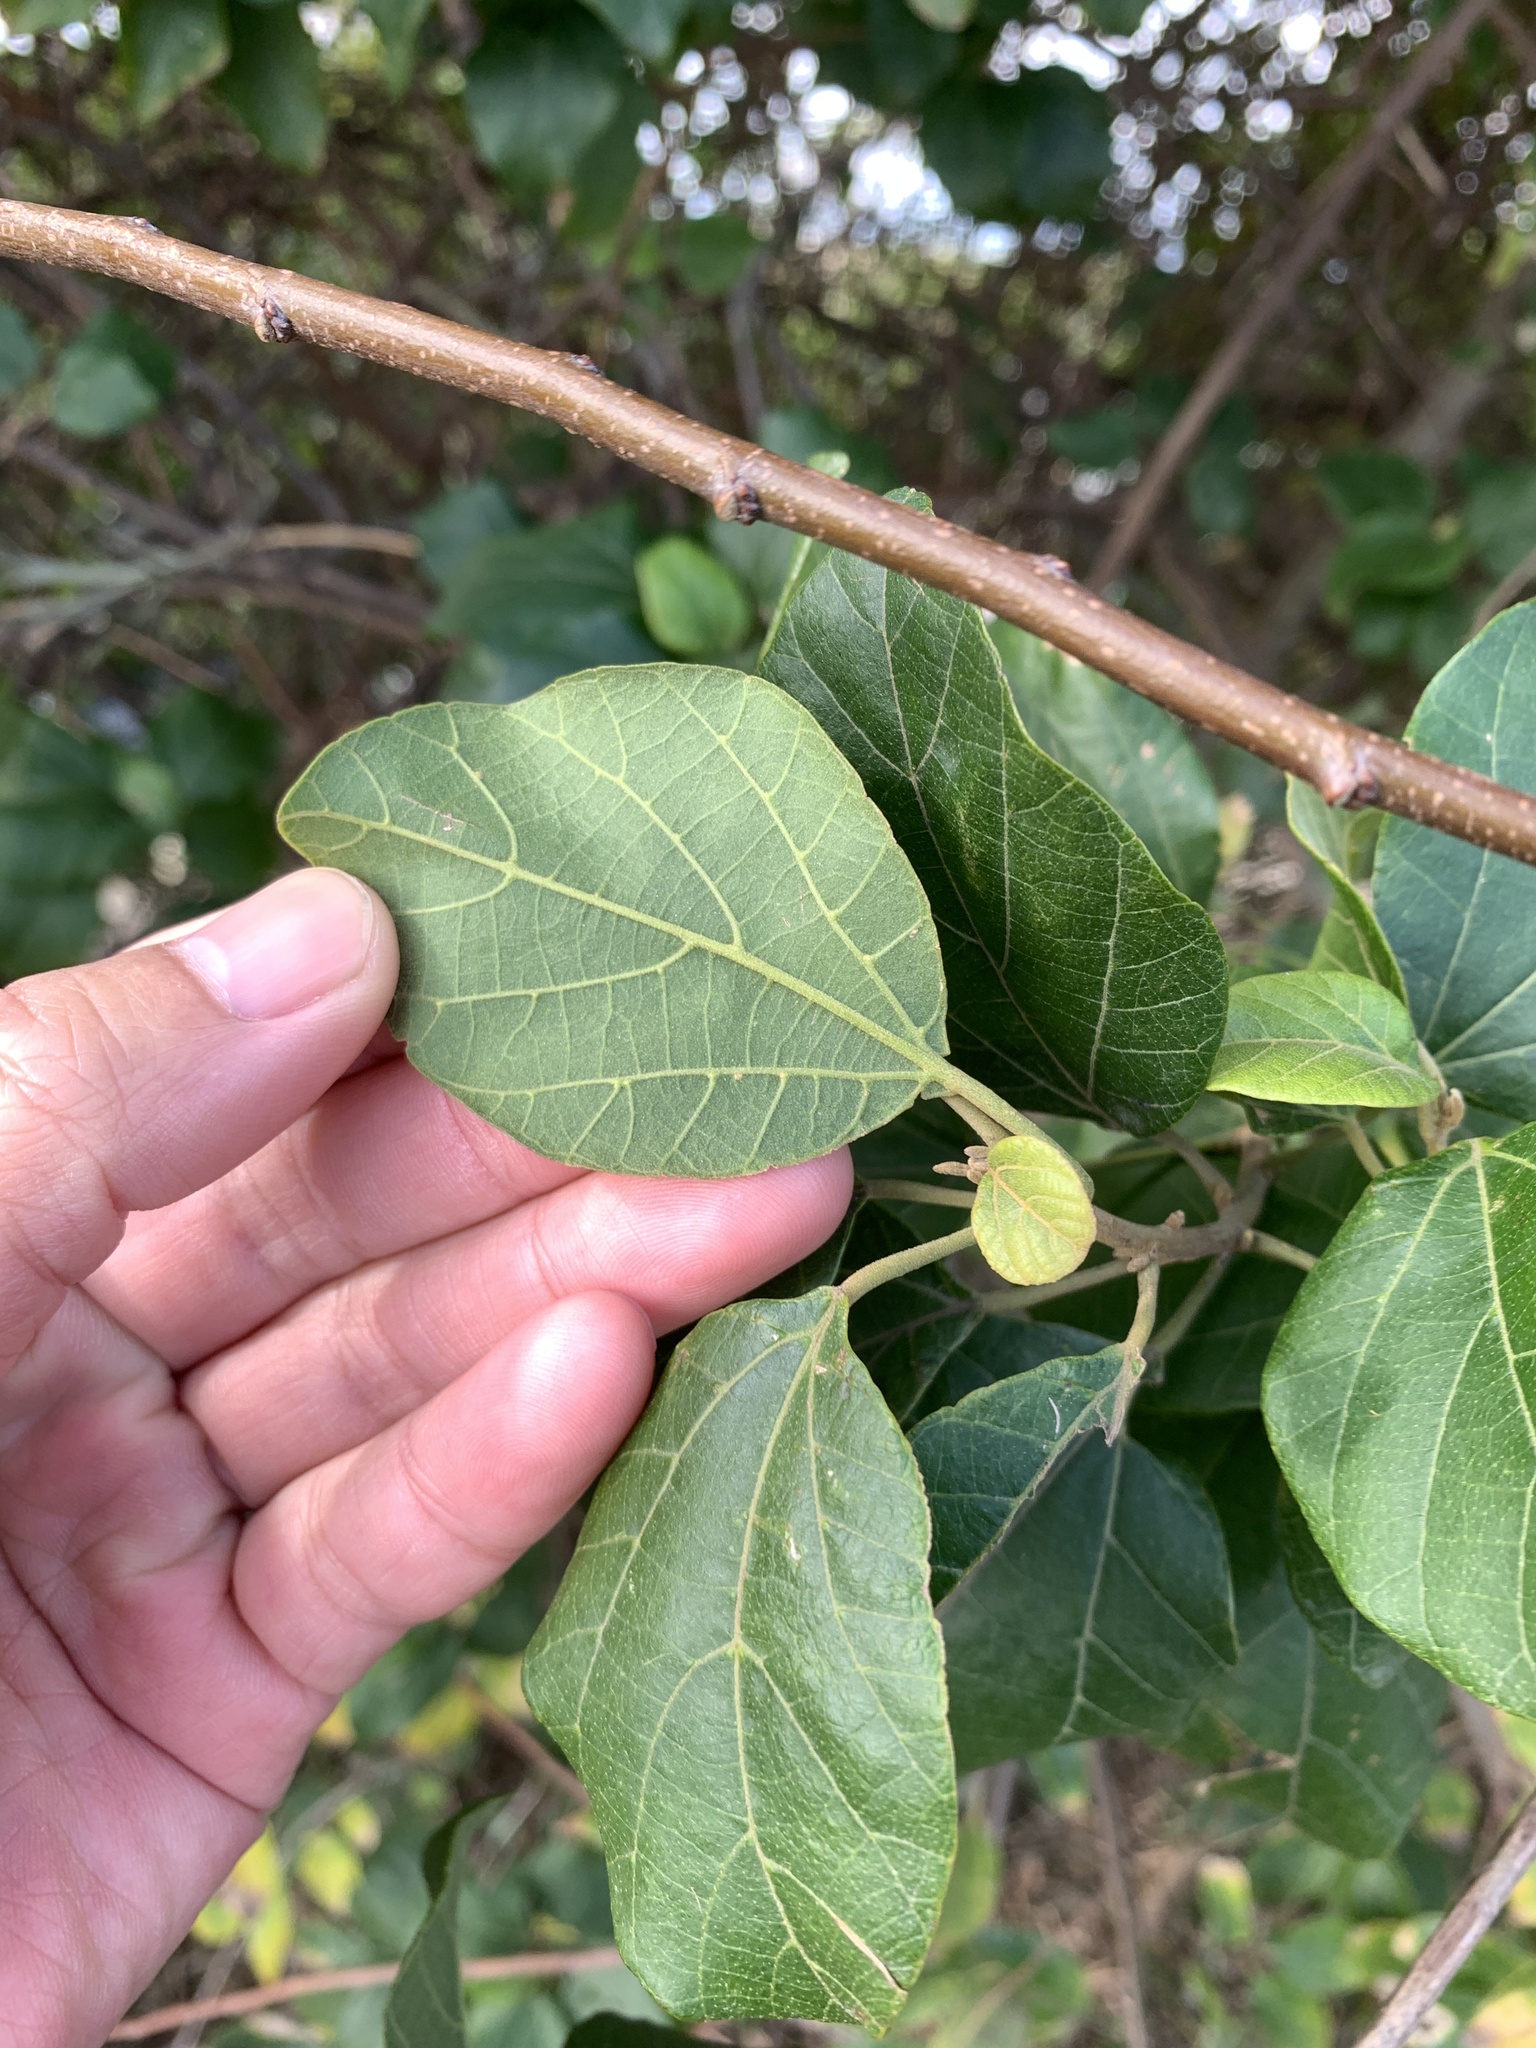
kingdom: Plantae
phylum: Tracheophyta
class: Magnoliopsida
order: Malpighiales
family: Euphorbiaceae
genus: Mallotus
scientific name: Mallotus repandus
